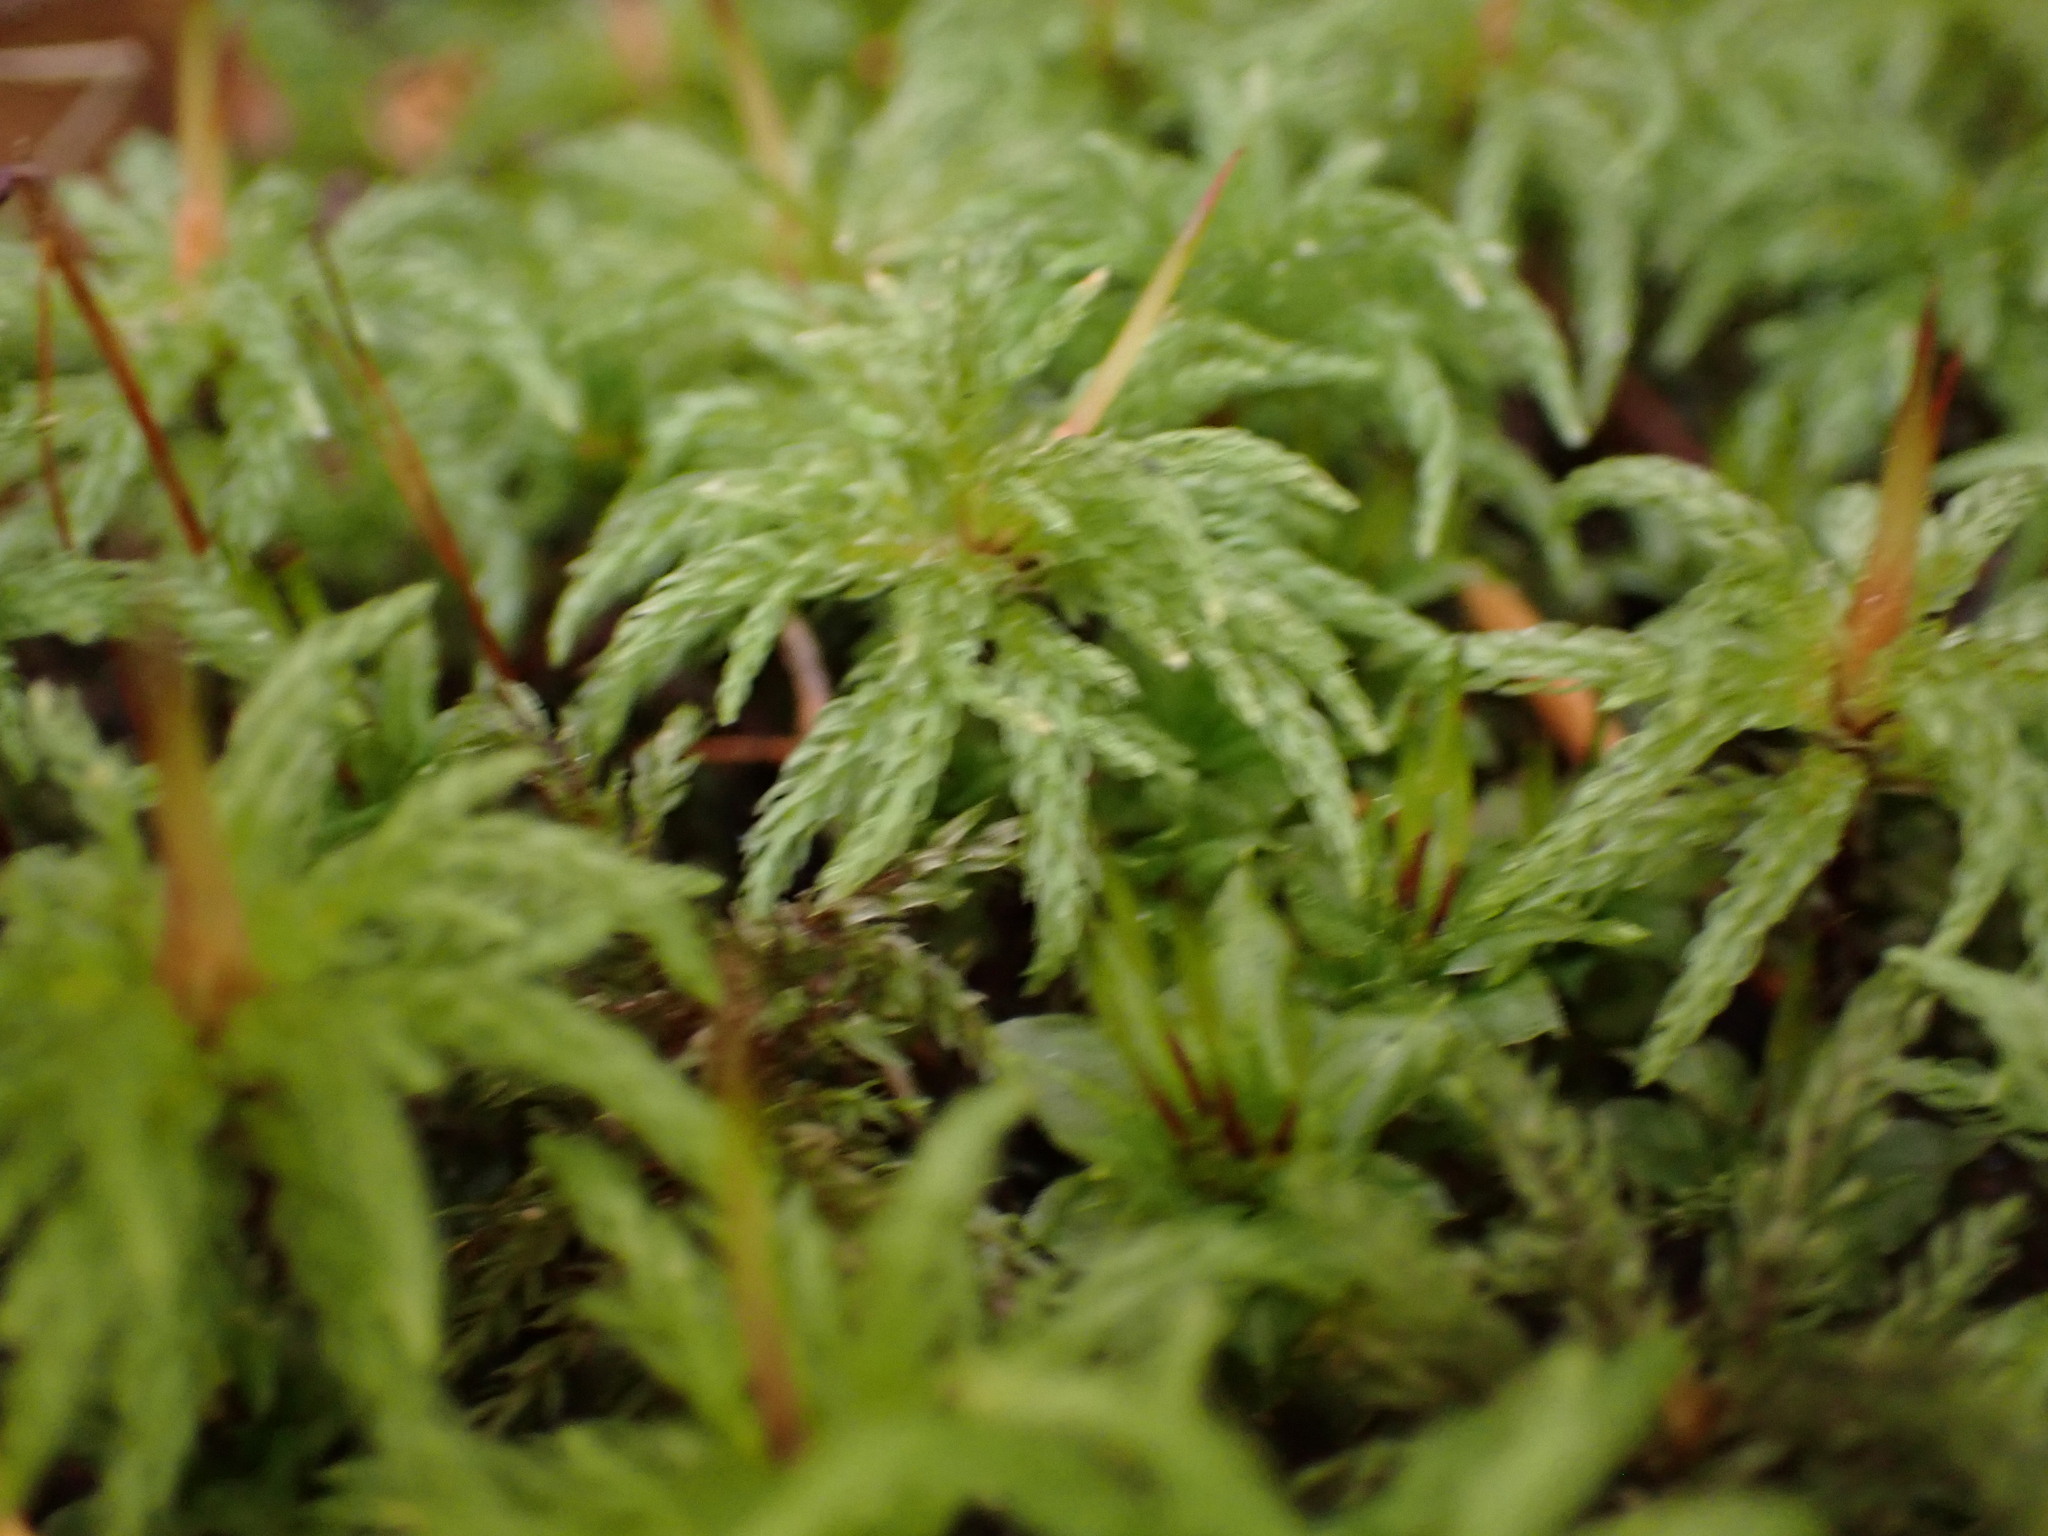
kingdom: Plantae
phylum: Bryophyta
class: Bryopsida
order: Bryales
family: Mniaceae
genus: Leucolepis
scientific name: Leucolepis acanthoneura
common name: Leucolepis umbrella moss
